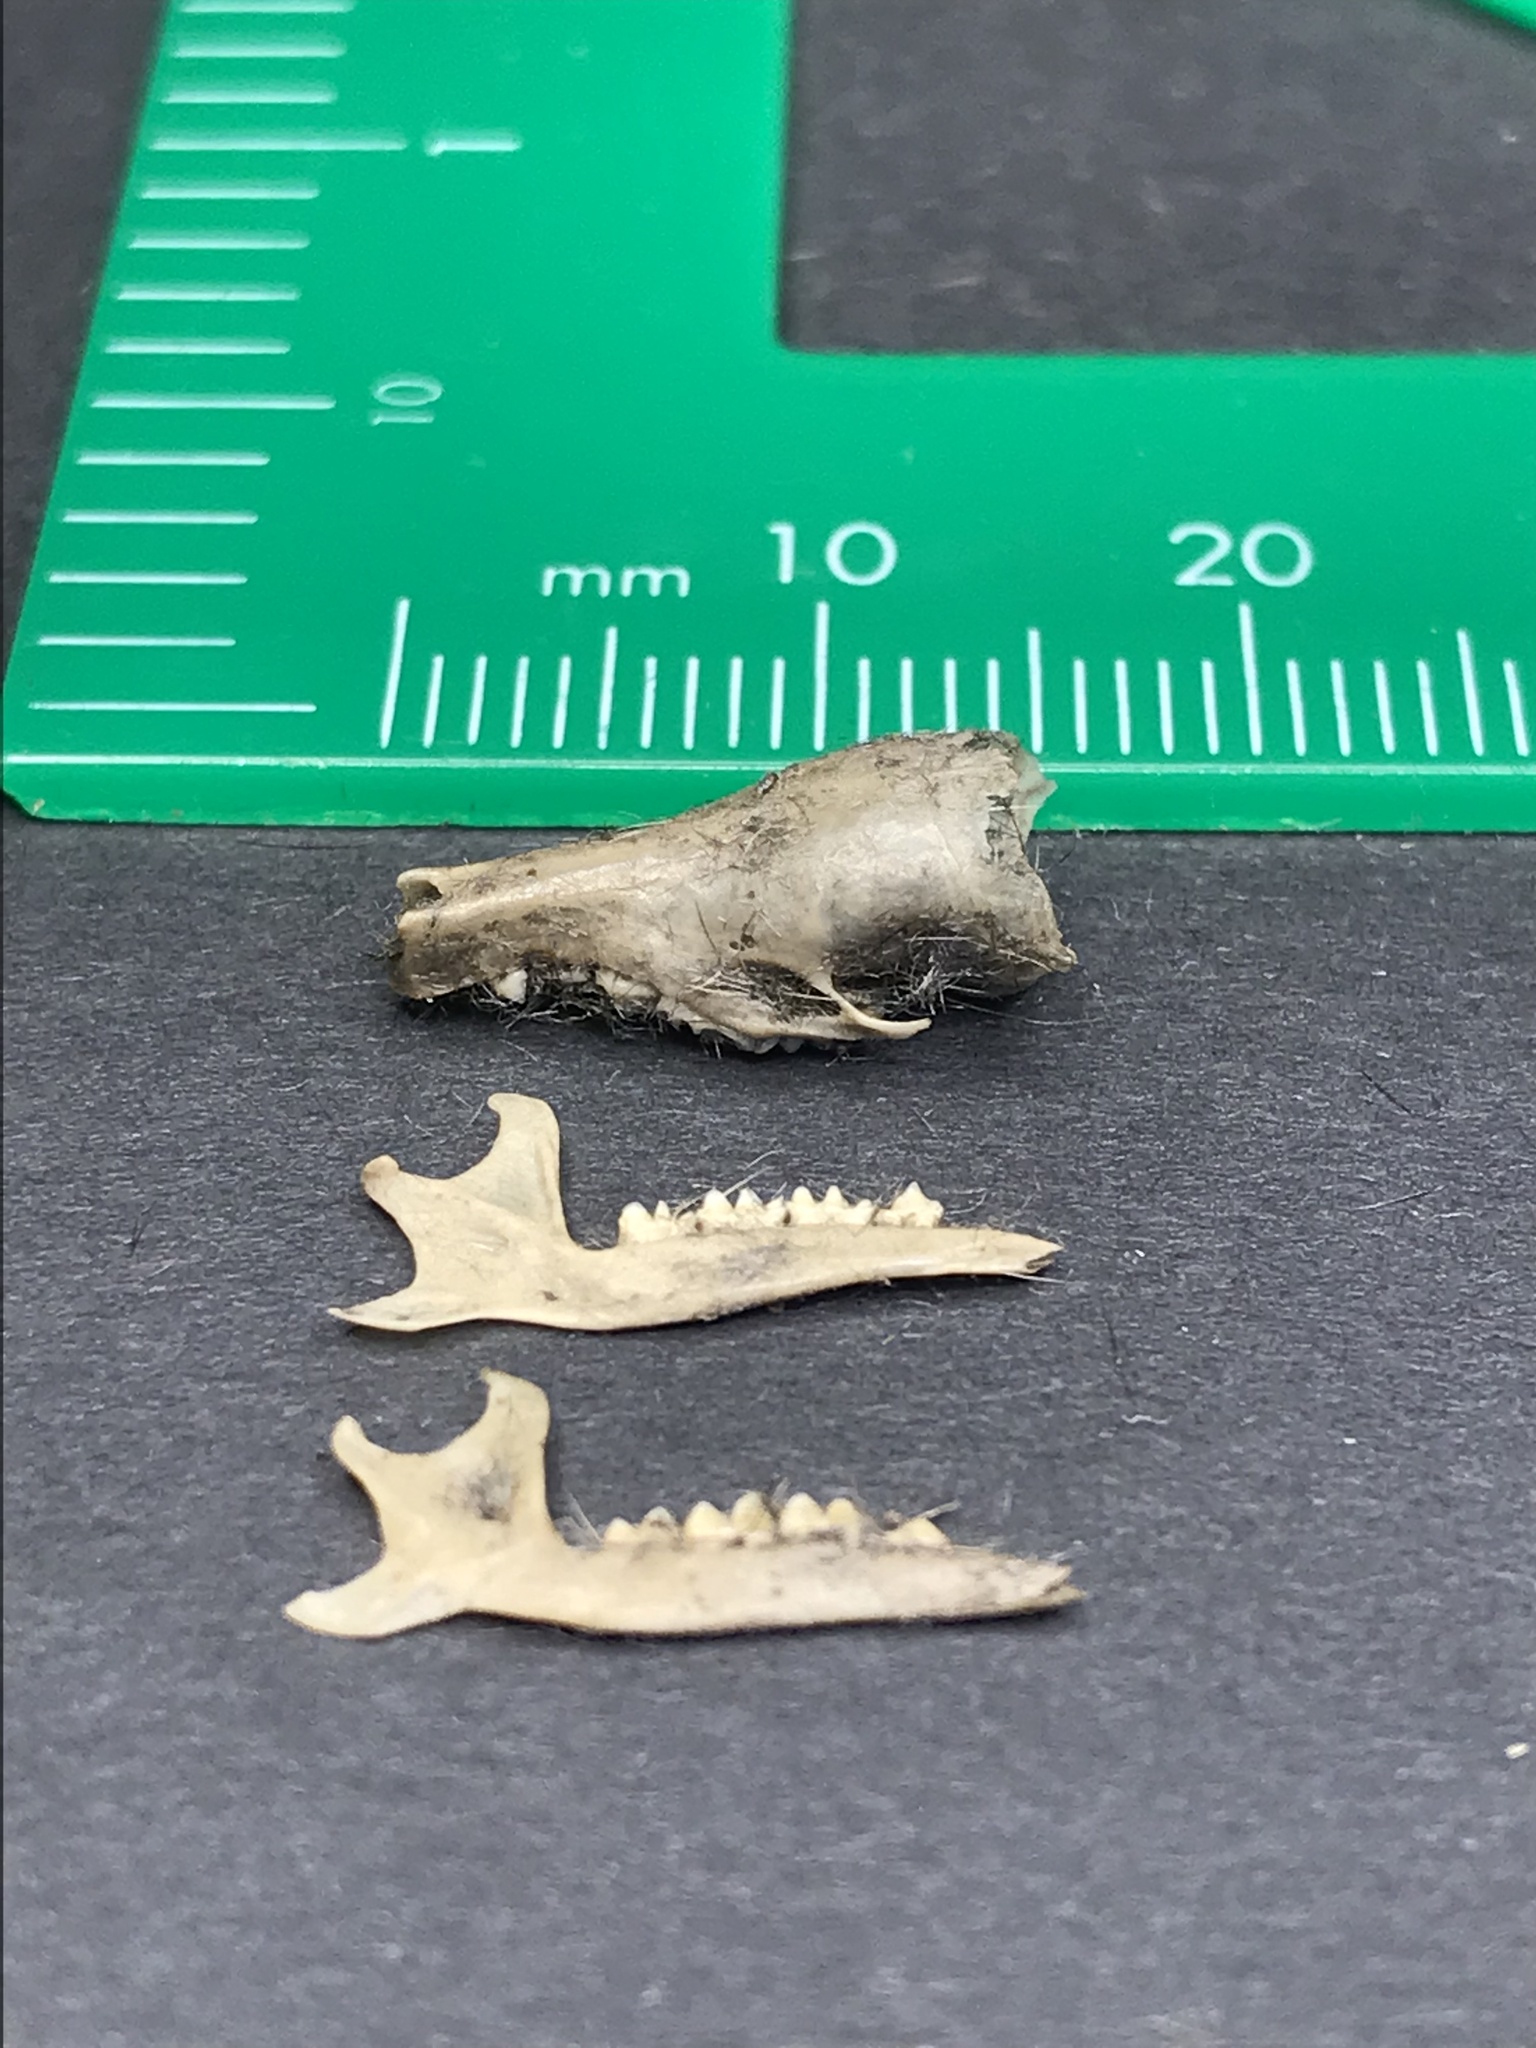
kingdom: Animalia
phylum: Chordata
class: Mammalia
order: Soricomorpha
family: Talpidae
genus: Neurotrichus
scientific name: Neurotrichus gibbsii
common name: American shrew mole
